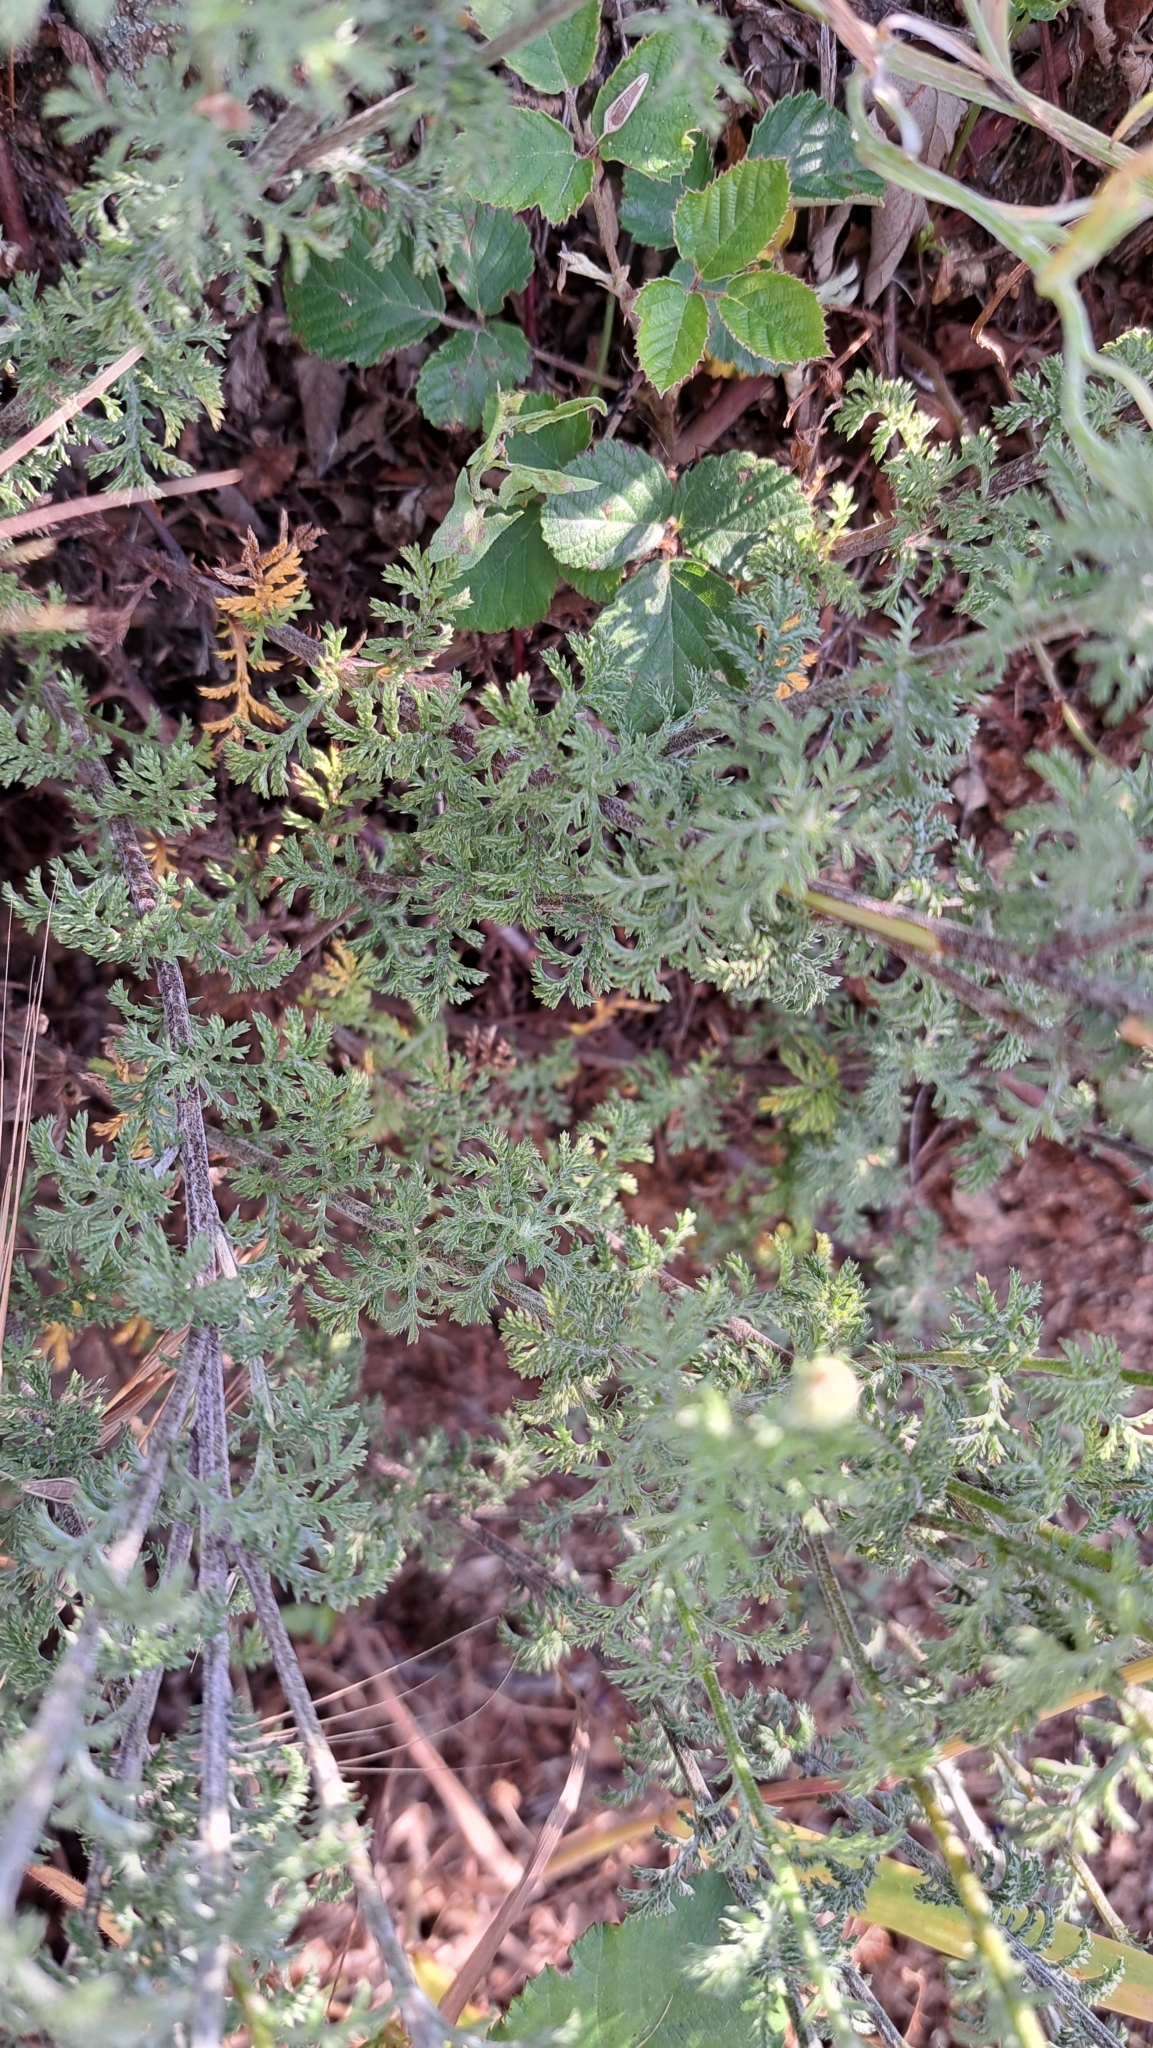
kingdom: Plantae
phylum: Tracheophyta
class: Magnoliopsida
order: Asterales
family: Asteraceae
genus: Cota
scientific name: Cota tinctoria
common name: Golden chamomile
